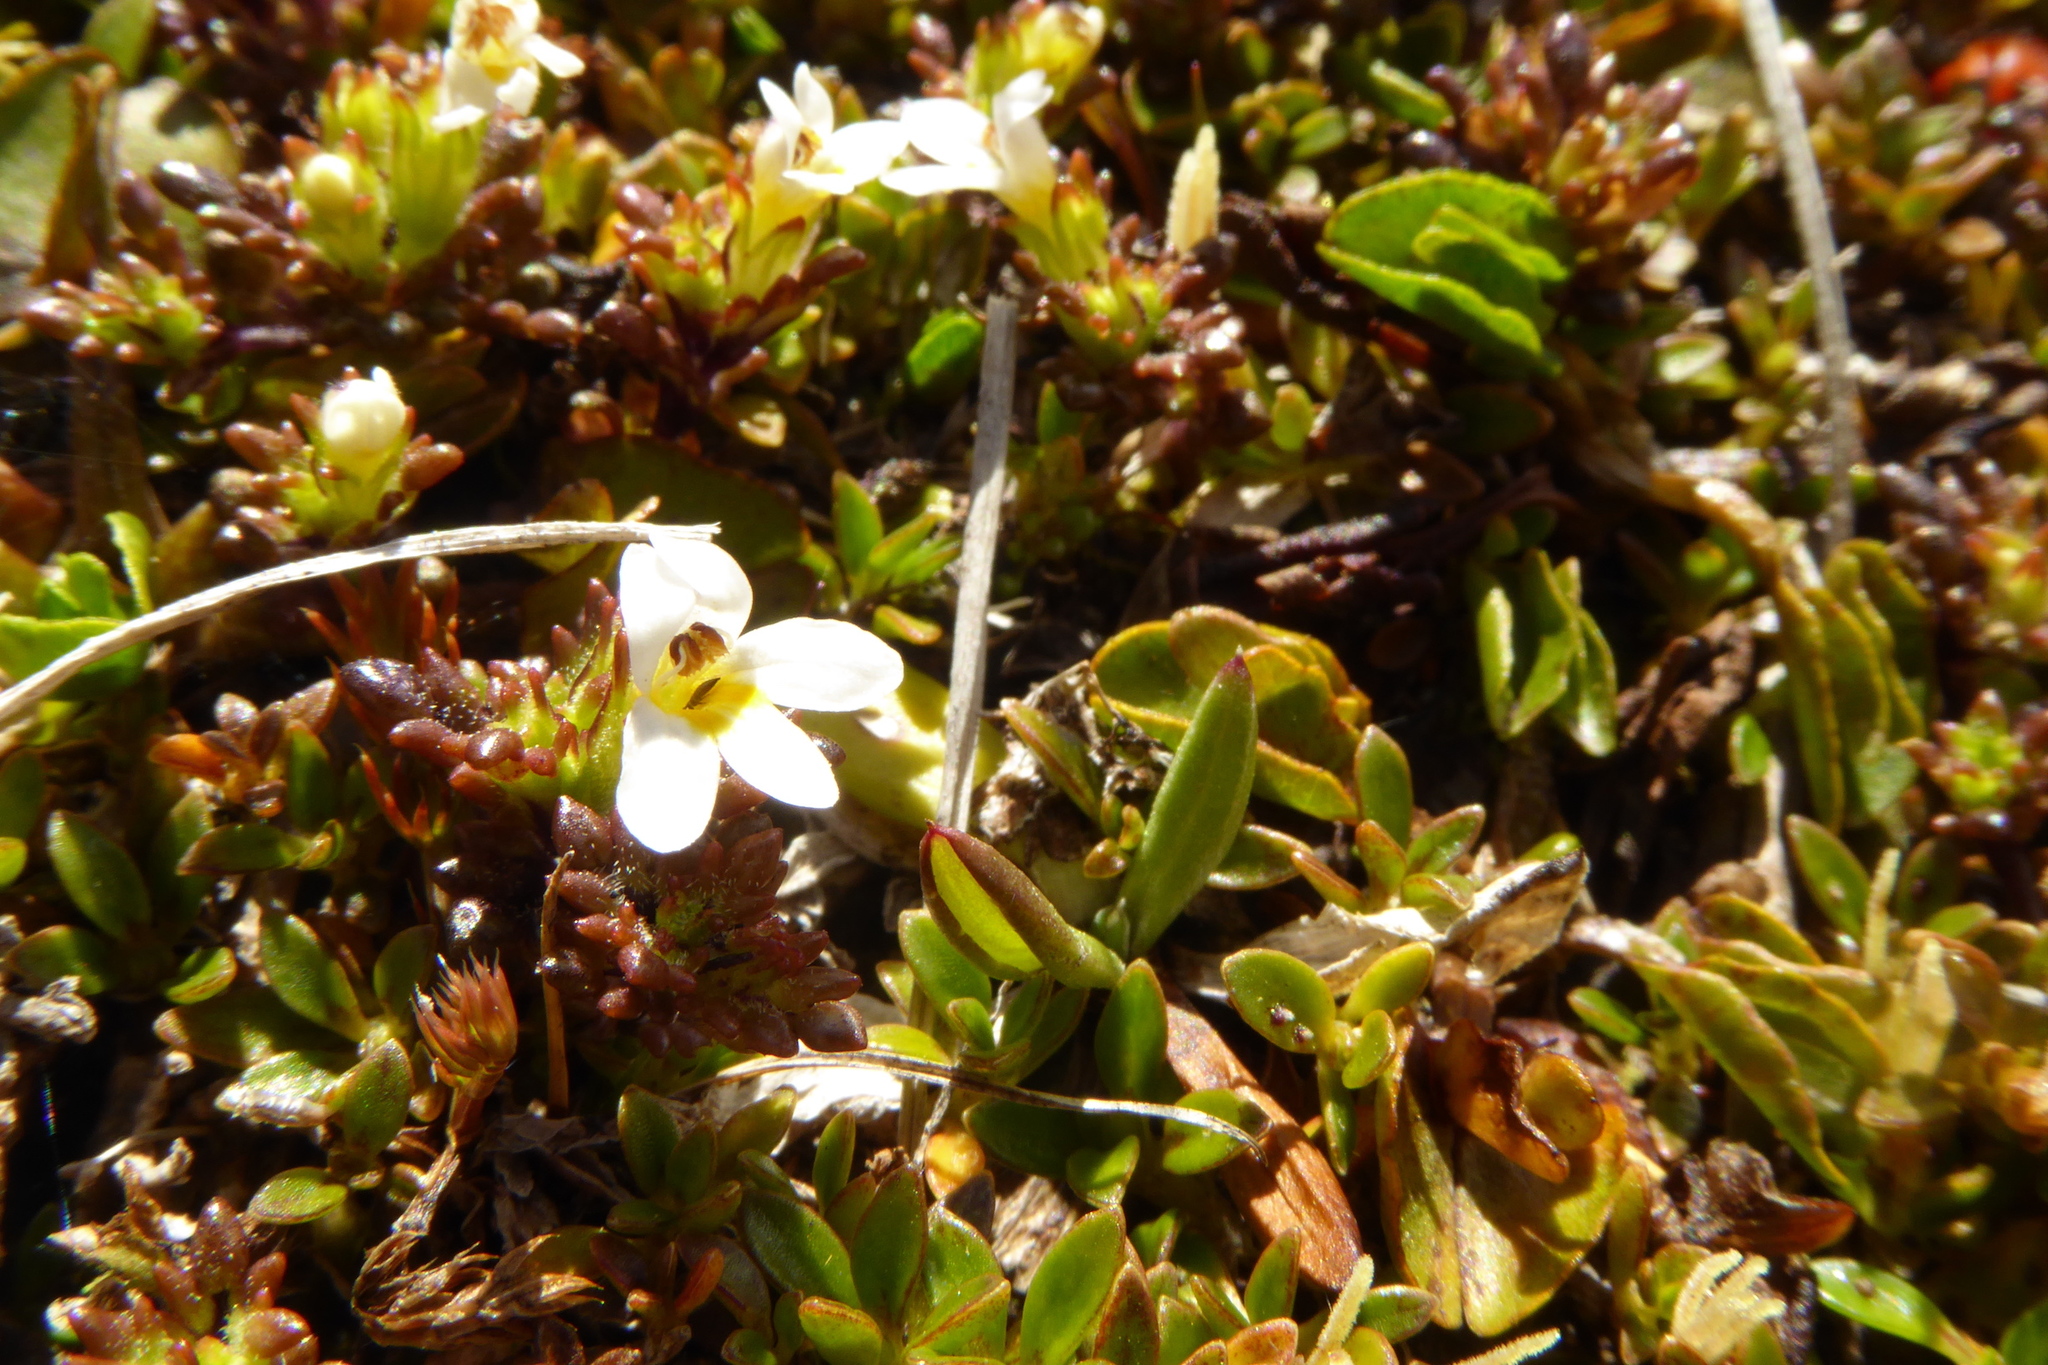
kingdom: Plantae
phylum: Tracheophyta
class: Magnoliopsida
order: Lamiales
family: Orobanchaceae
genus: Euphrasia
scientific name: Euphrasia zelandica
